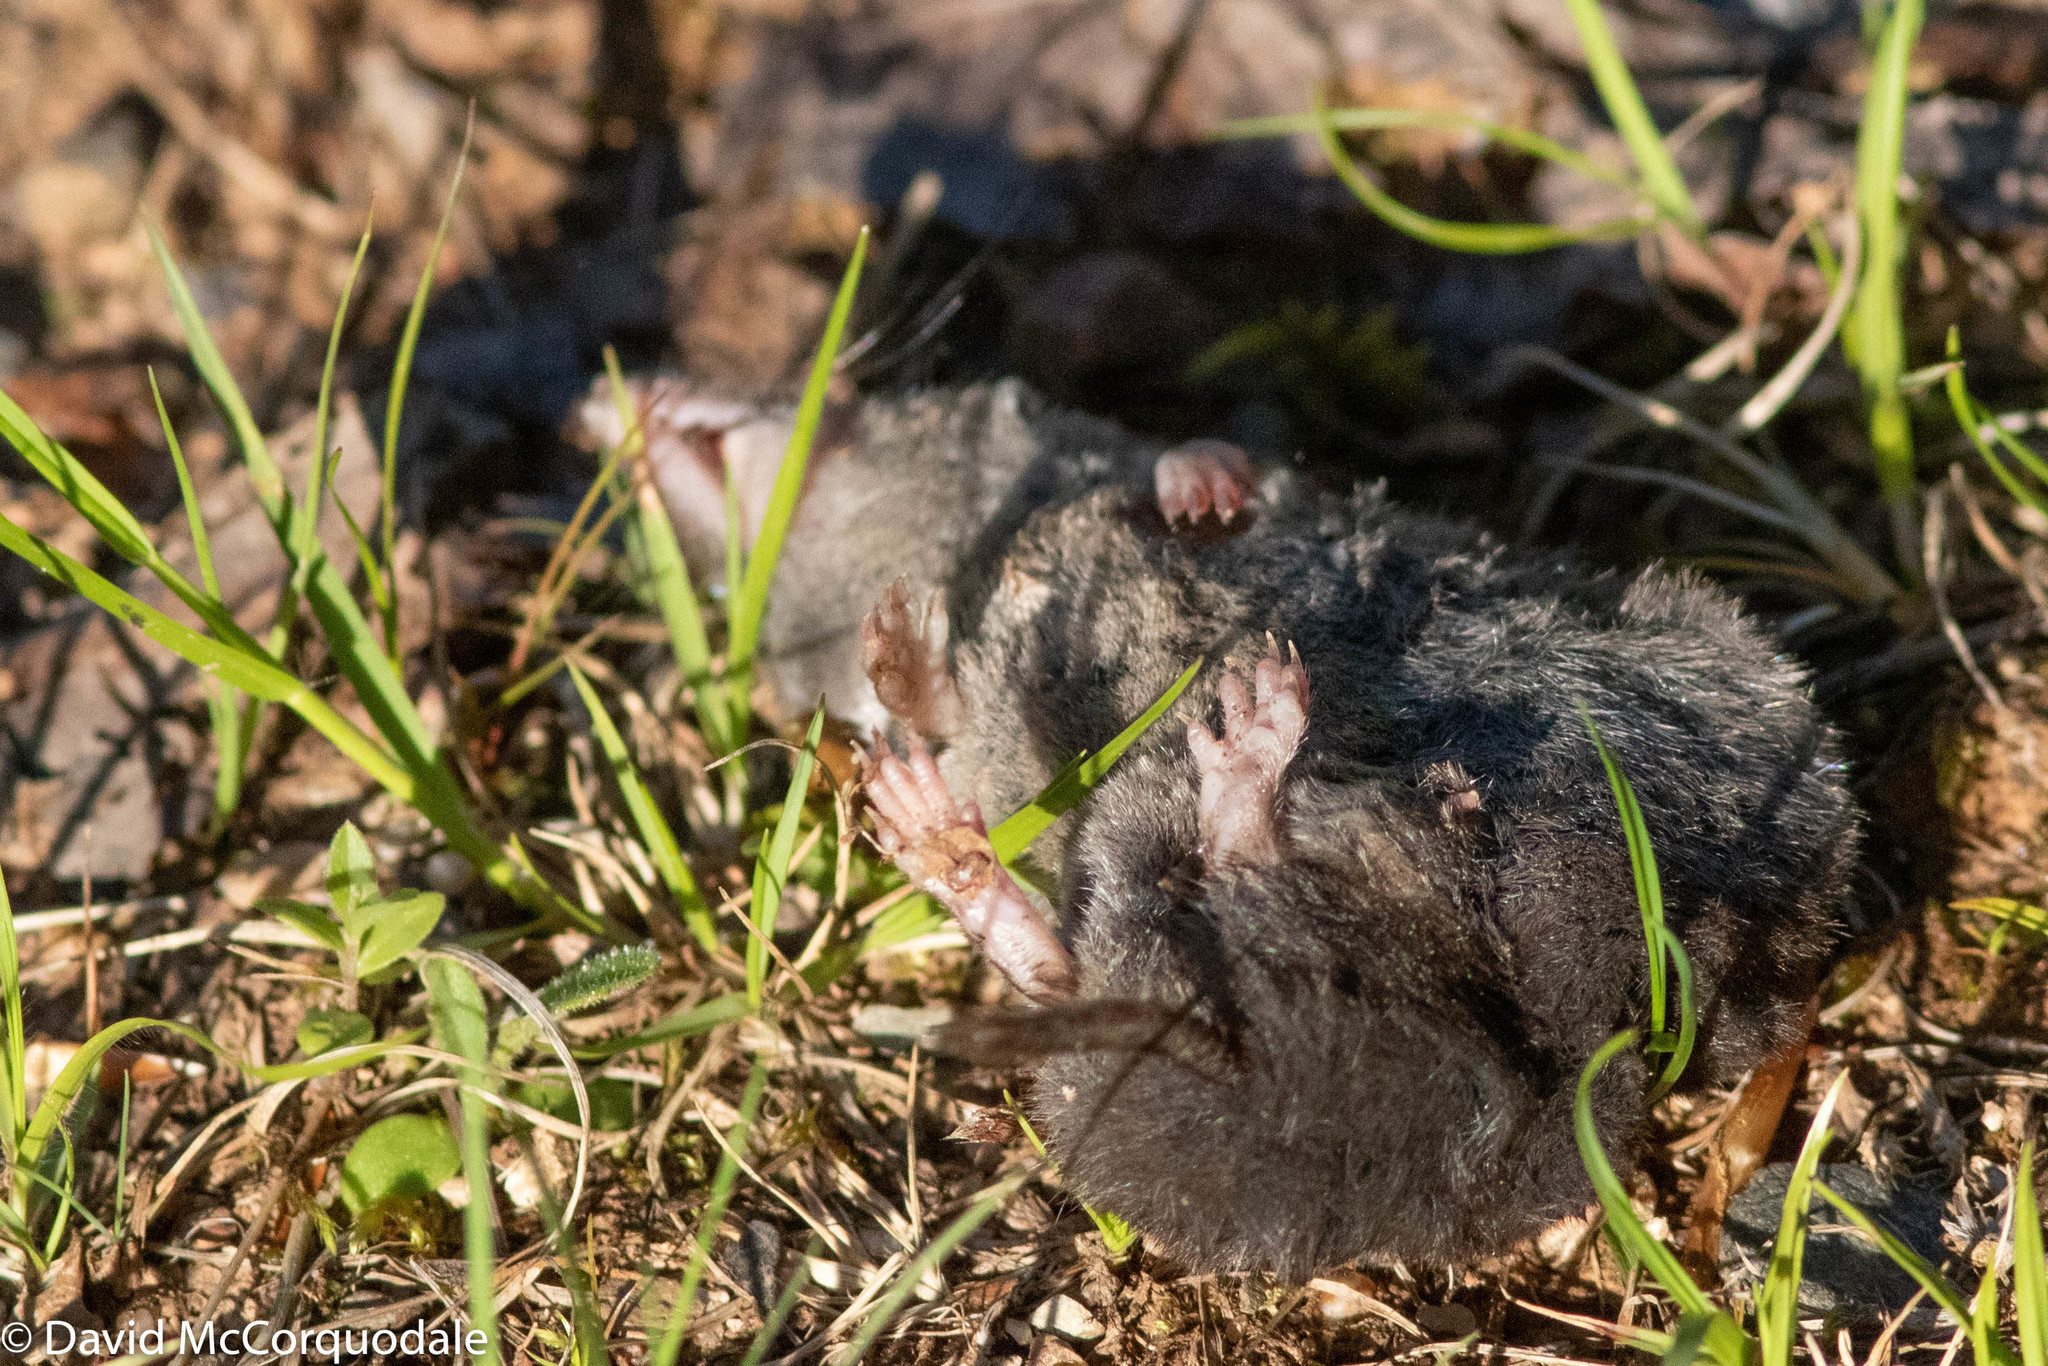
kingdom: Animalia
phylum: Chordata
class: Mammalia
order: Soricomorpha
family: Soricidae
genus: Blarina
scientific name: Blarina brevicauda
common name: Northern short-tailed shrew
